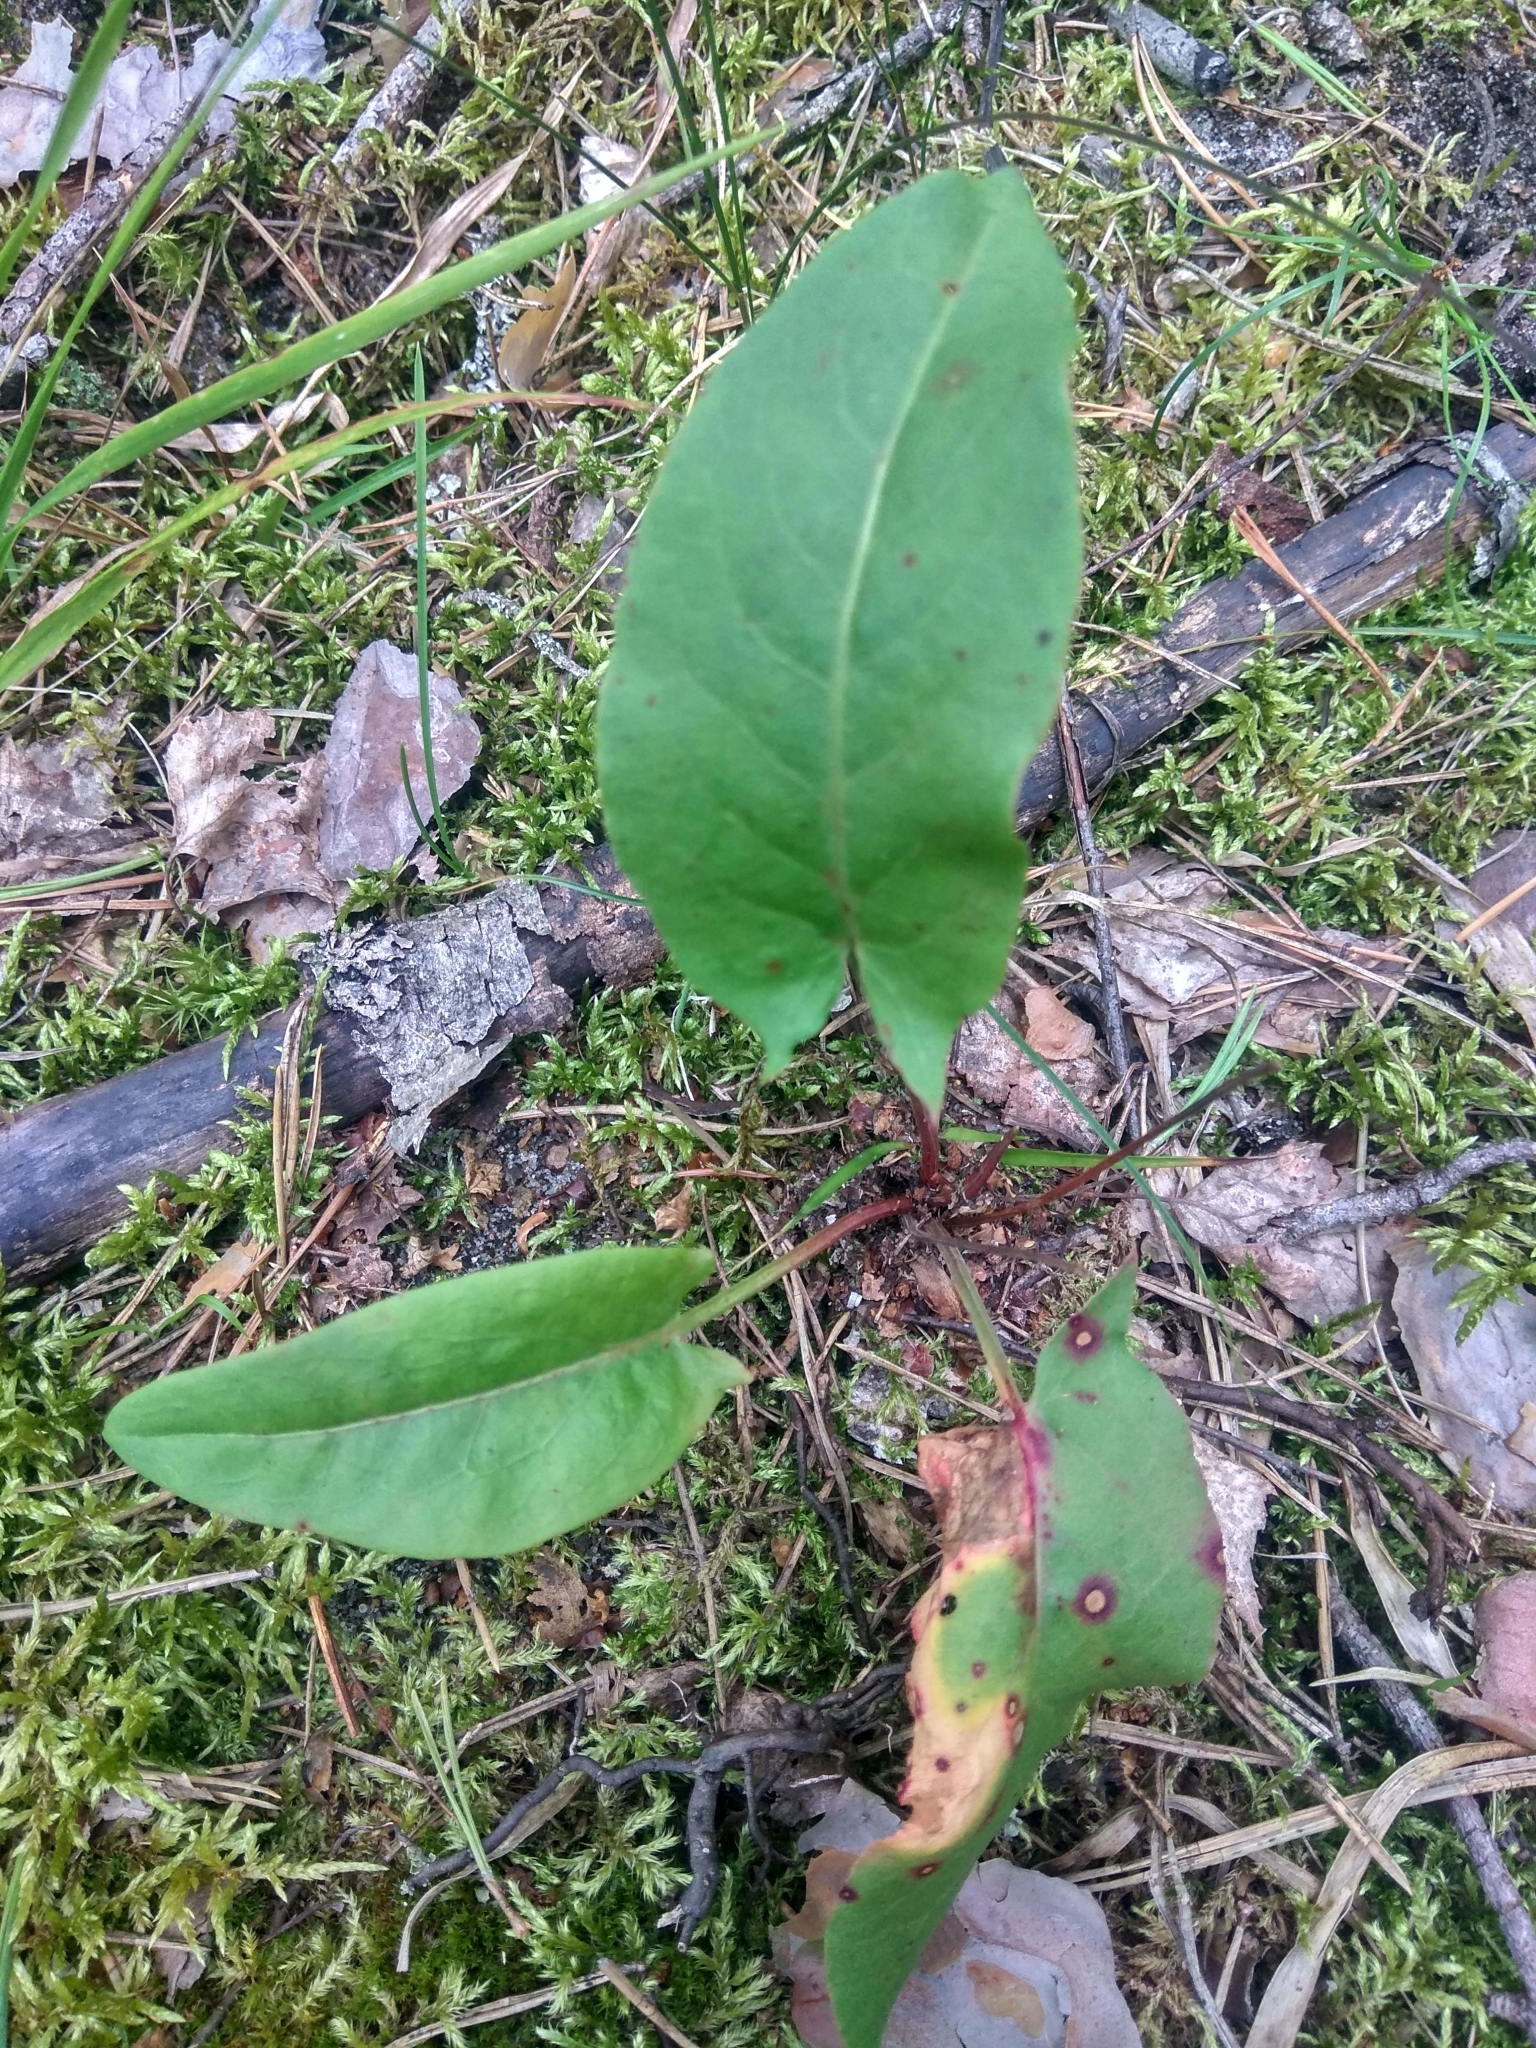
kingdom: Plantae
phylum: Tracheophyta
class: Magnoliopsida
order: Caryophyllales
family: Polygonaceae
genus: Rumex
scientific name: Rumex acetosa
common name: Garden sorrel
